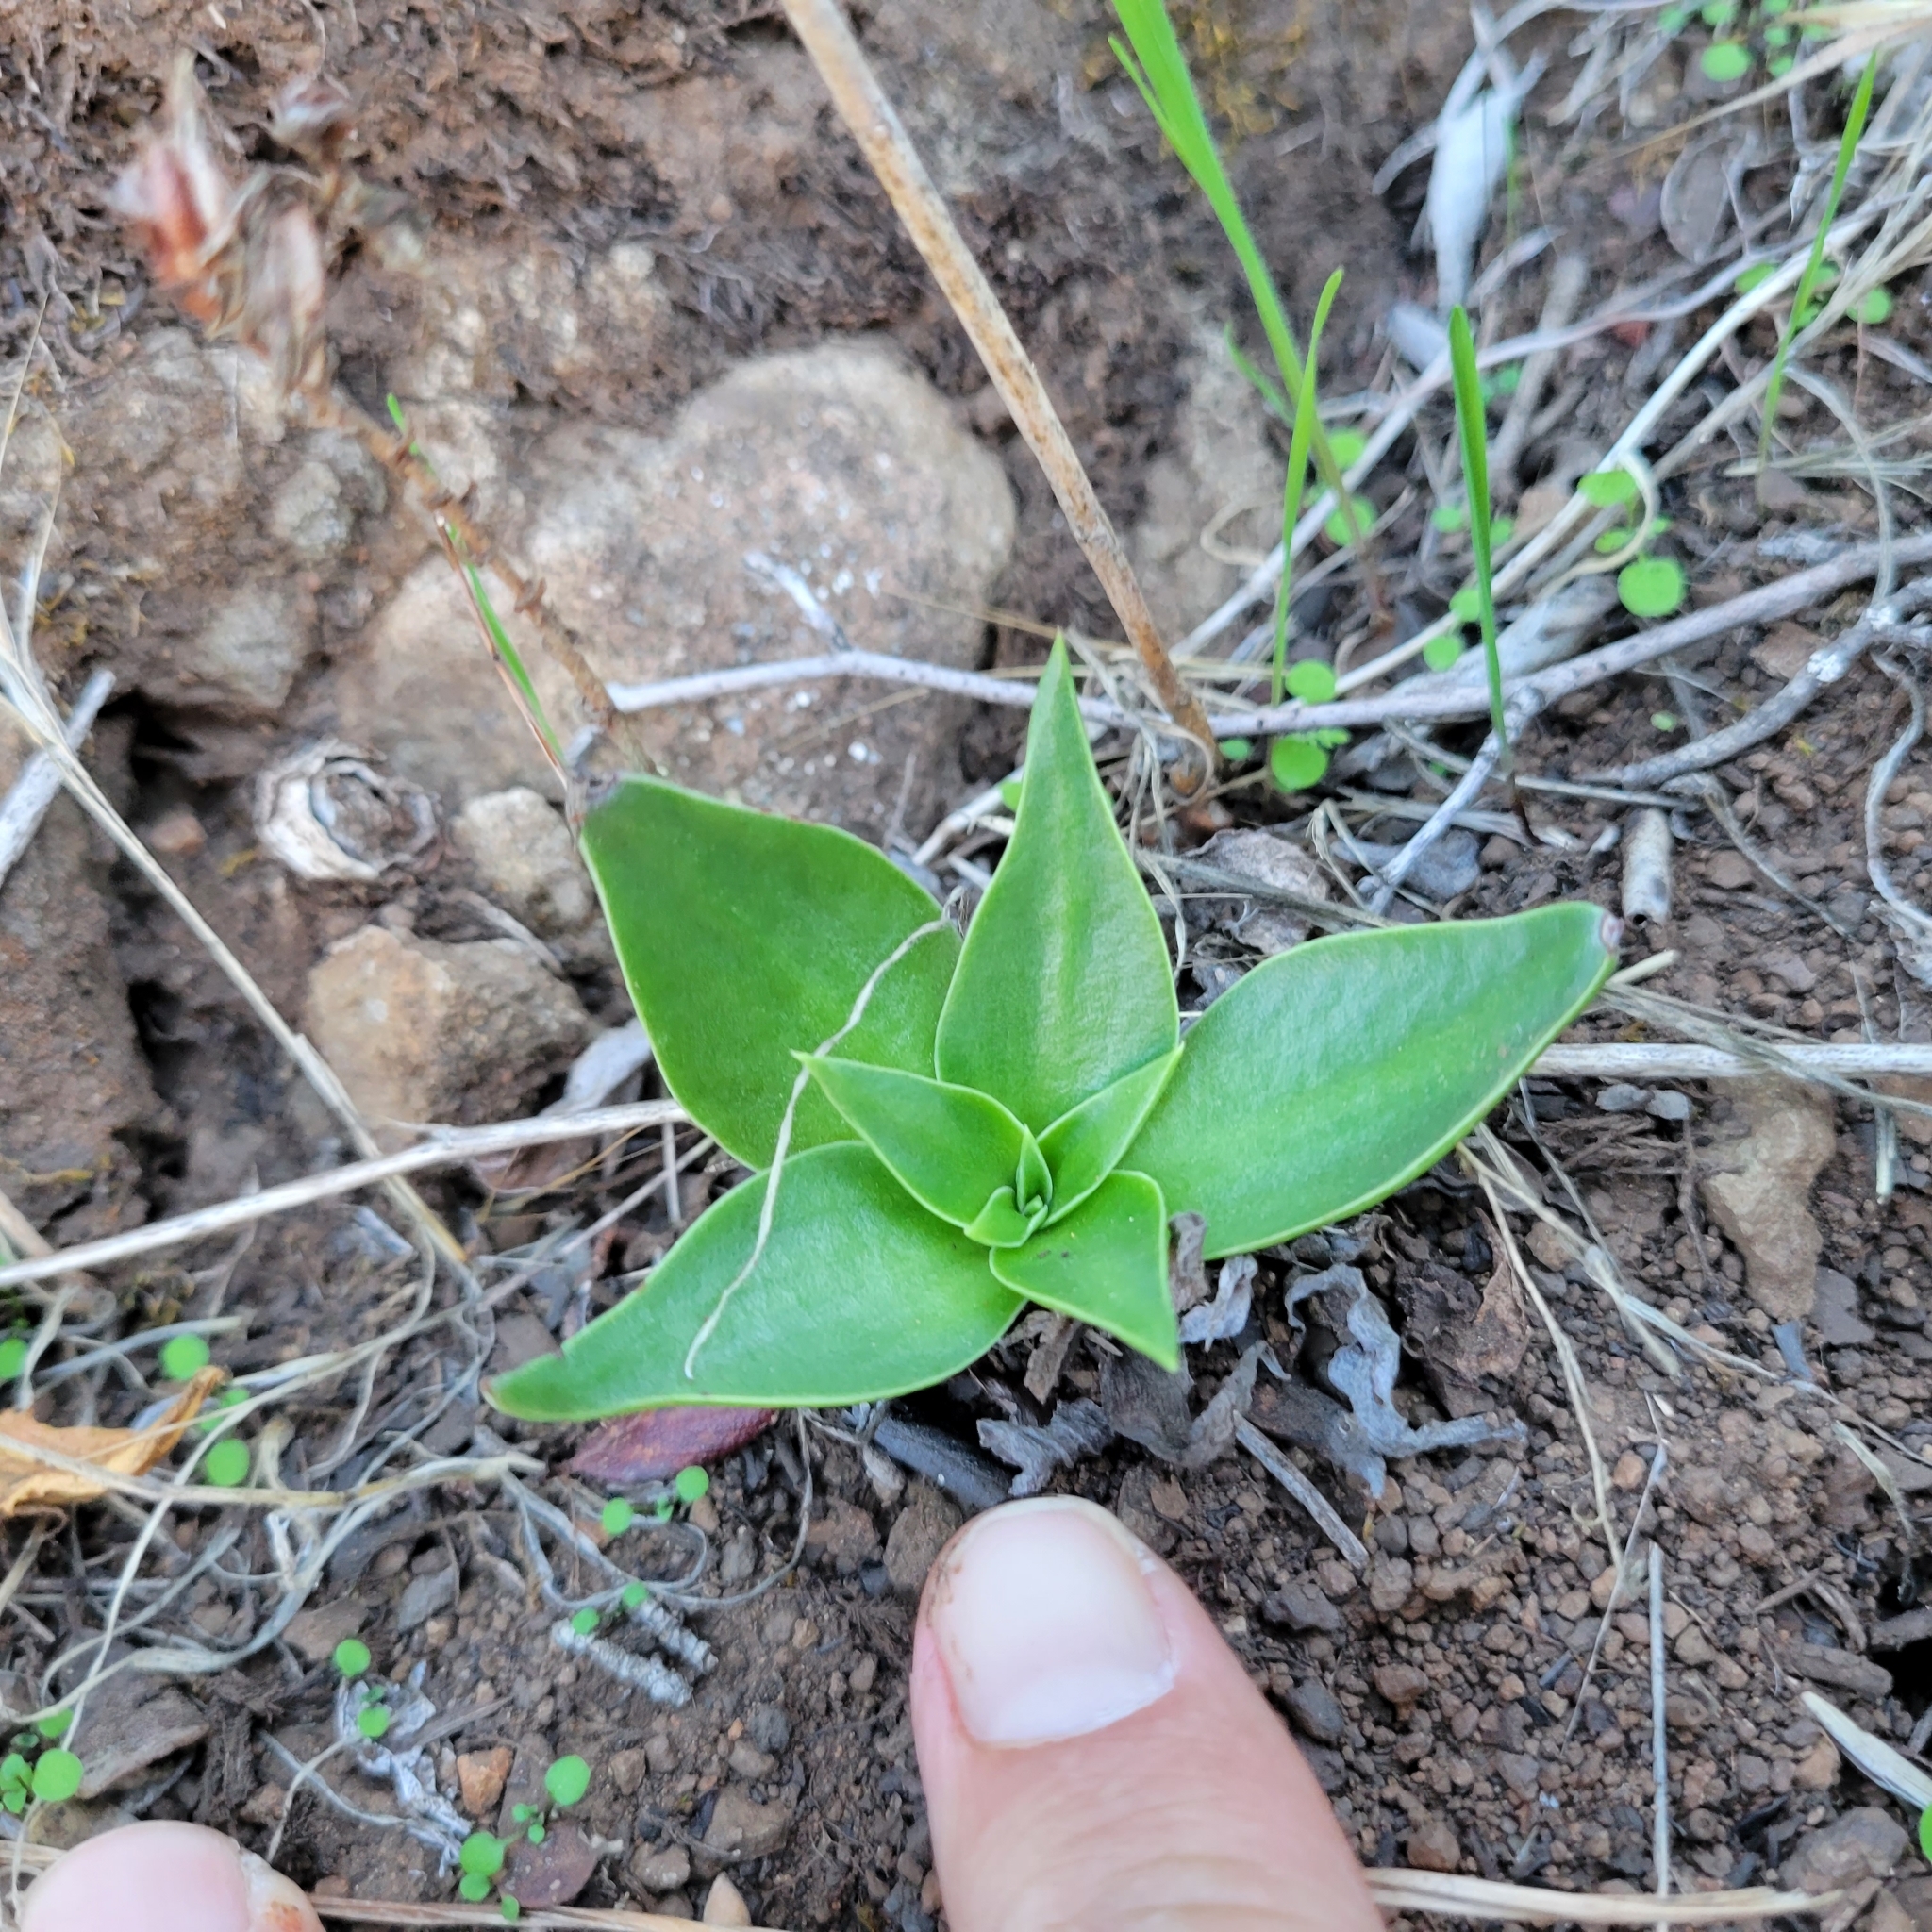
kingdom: Plantae
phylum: Tracheophyta
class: Magnoliopsida
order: Saxifragales
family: Crassulaceae
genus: Dudleya
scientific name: Dudleya lanceolata
